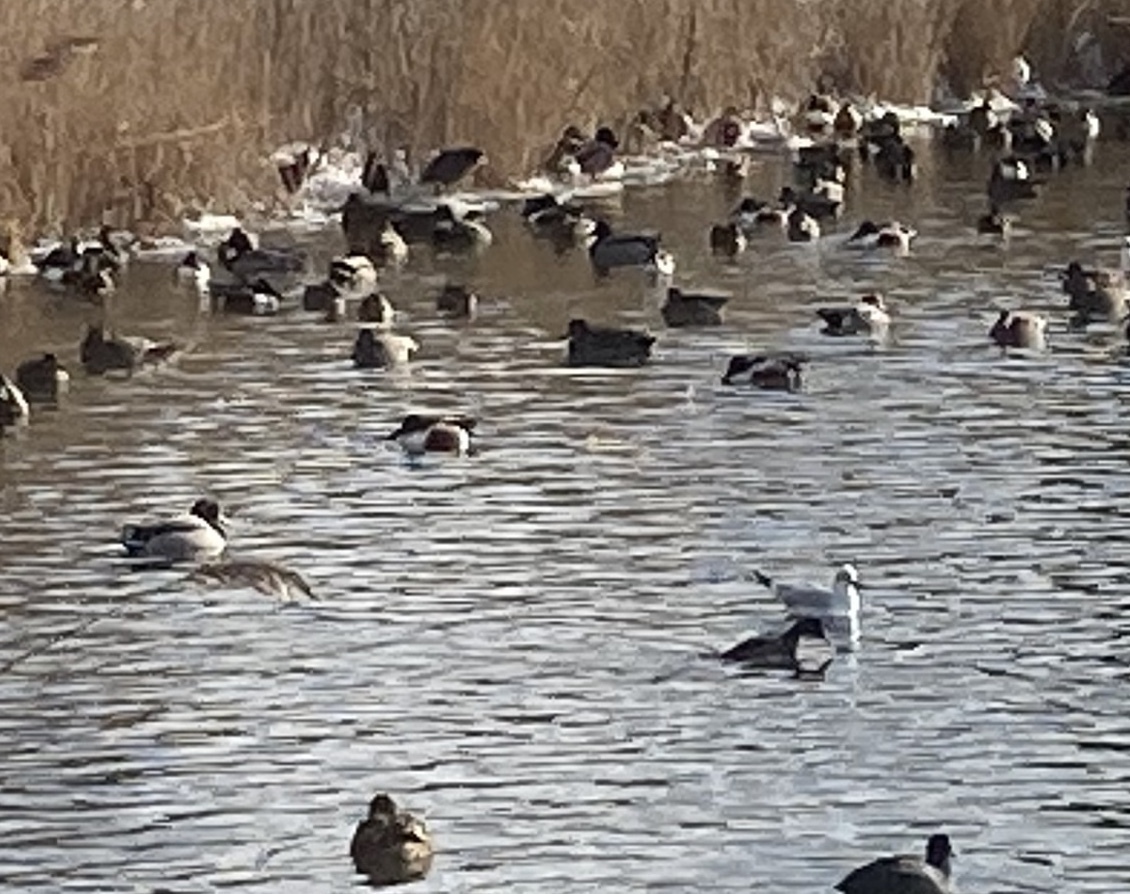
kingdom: Animalia
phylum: Chordata
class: Aves
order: Anseriformes
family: Anatidae
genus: Spatula
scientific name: Spatula clypeata
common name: Northern shoveler
